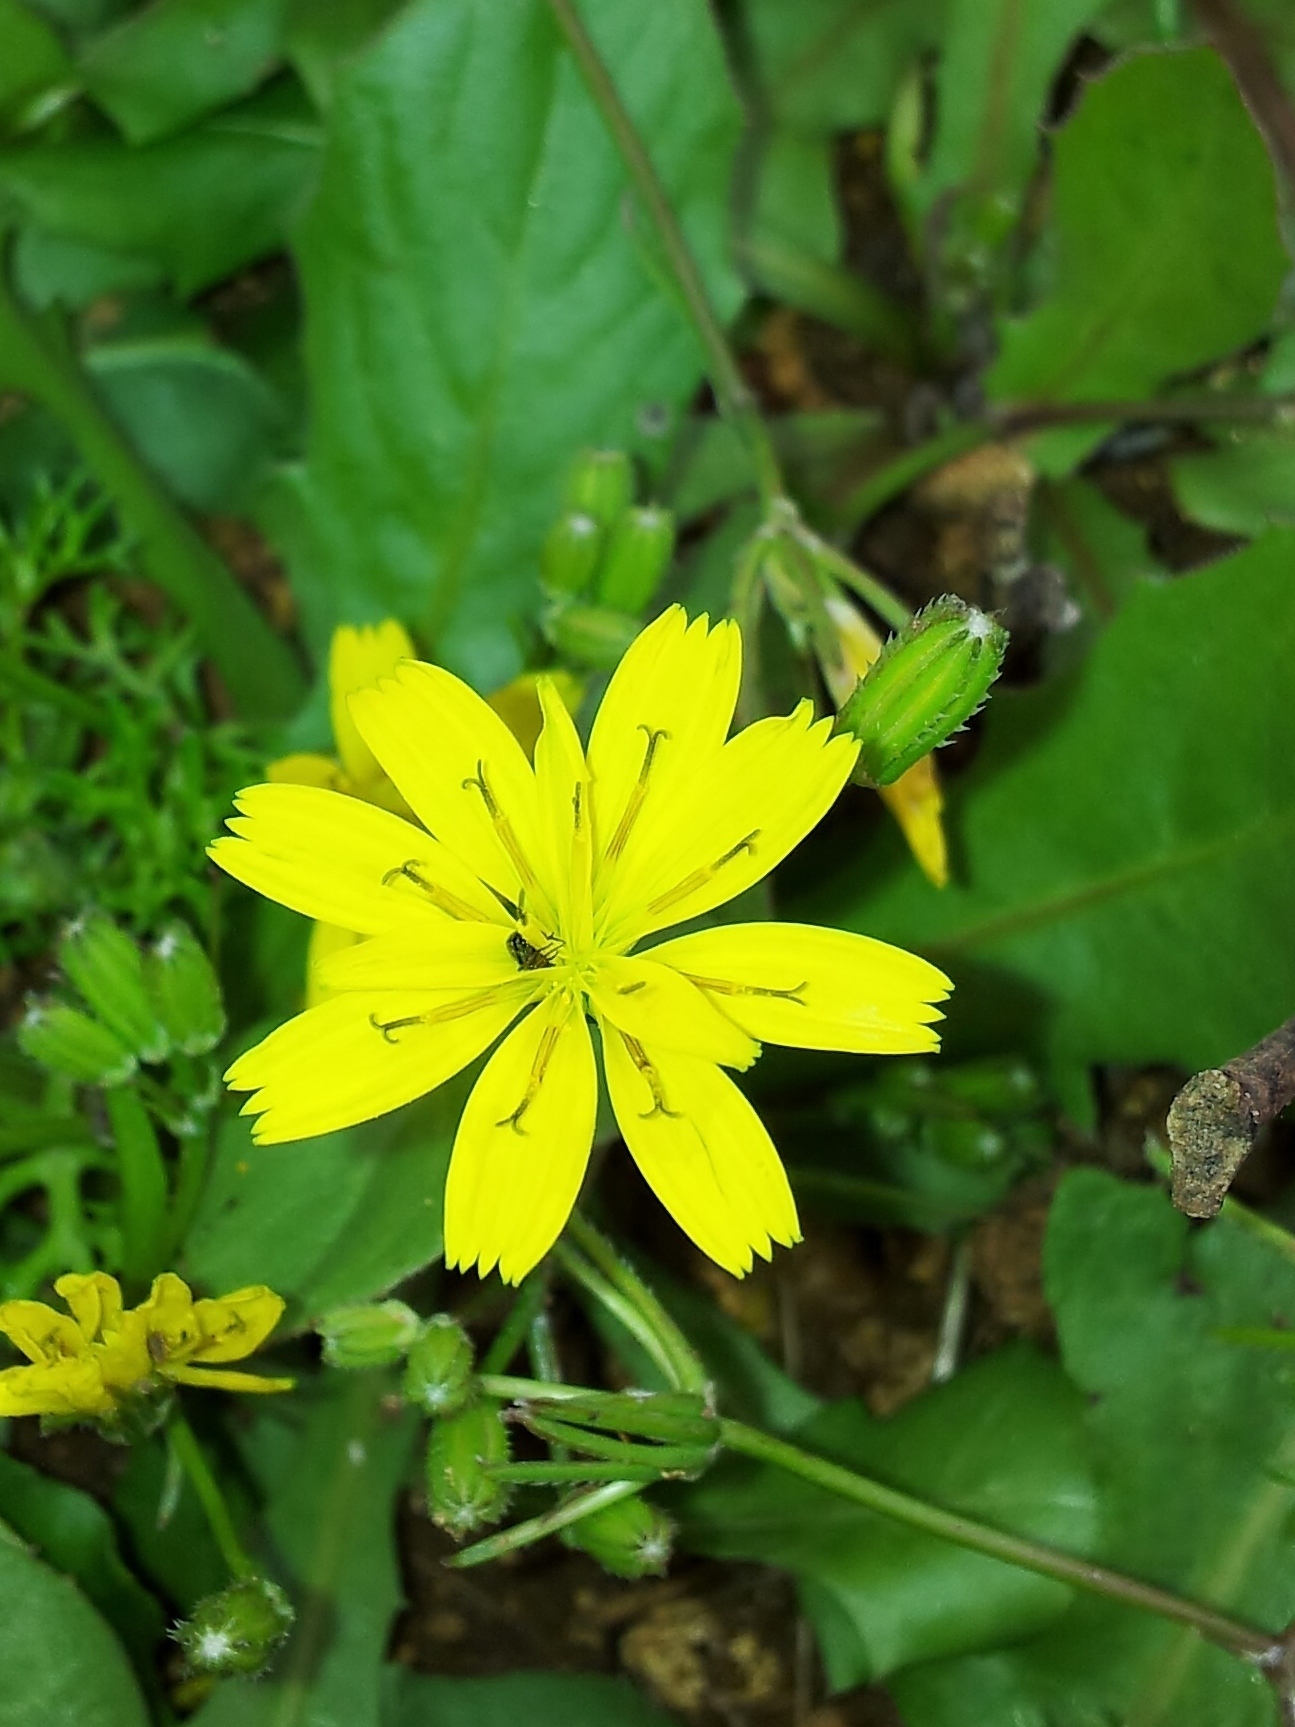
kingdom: Plantae
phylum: Tracheophyta
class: Magnoliopsida
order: Asterales
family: Asteraceae
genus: Rhagadiolus
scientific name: Rhagadiolus stellatus
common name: Star hawkbit
